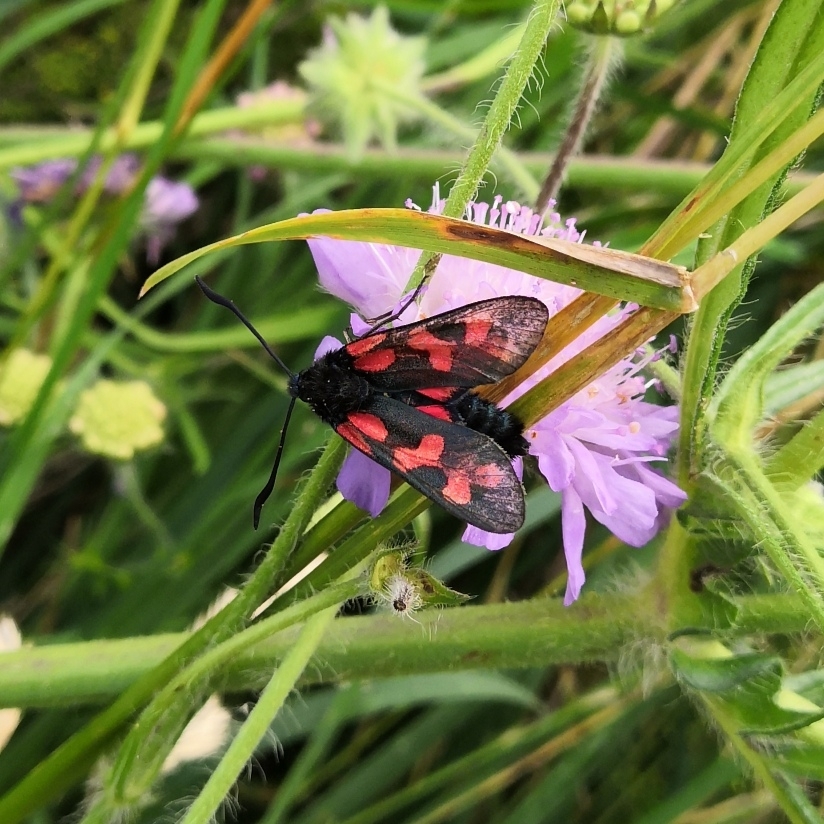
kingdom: Animalia
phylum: Arthropoda
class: Insecta
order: Lepidoptera
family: Zygaenidae
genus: Zygaena
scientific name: Zygaena filipendulae
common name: Six-spot burnet
